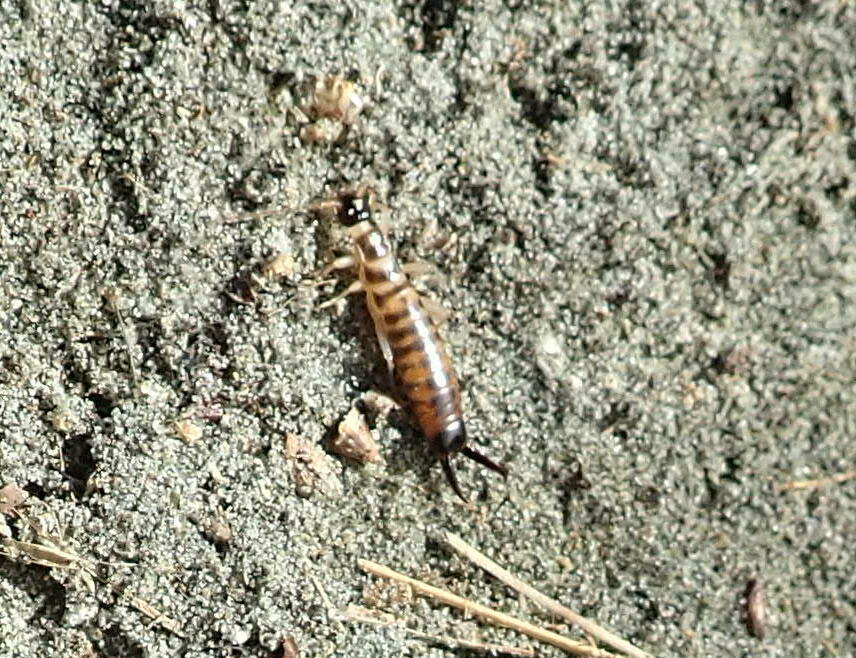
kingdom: Animalia
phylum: Arthropoda
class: Insecta
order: Dermaptera
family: Anisolabididae
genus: Anisolabis
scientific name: Anisolabis littorea
